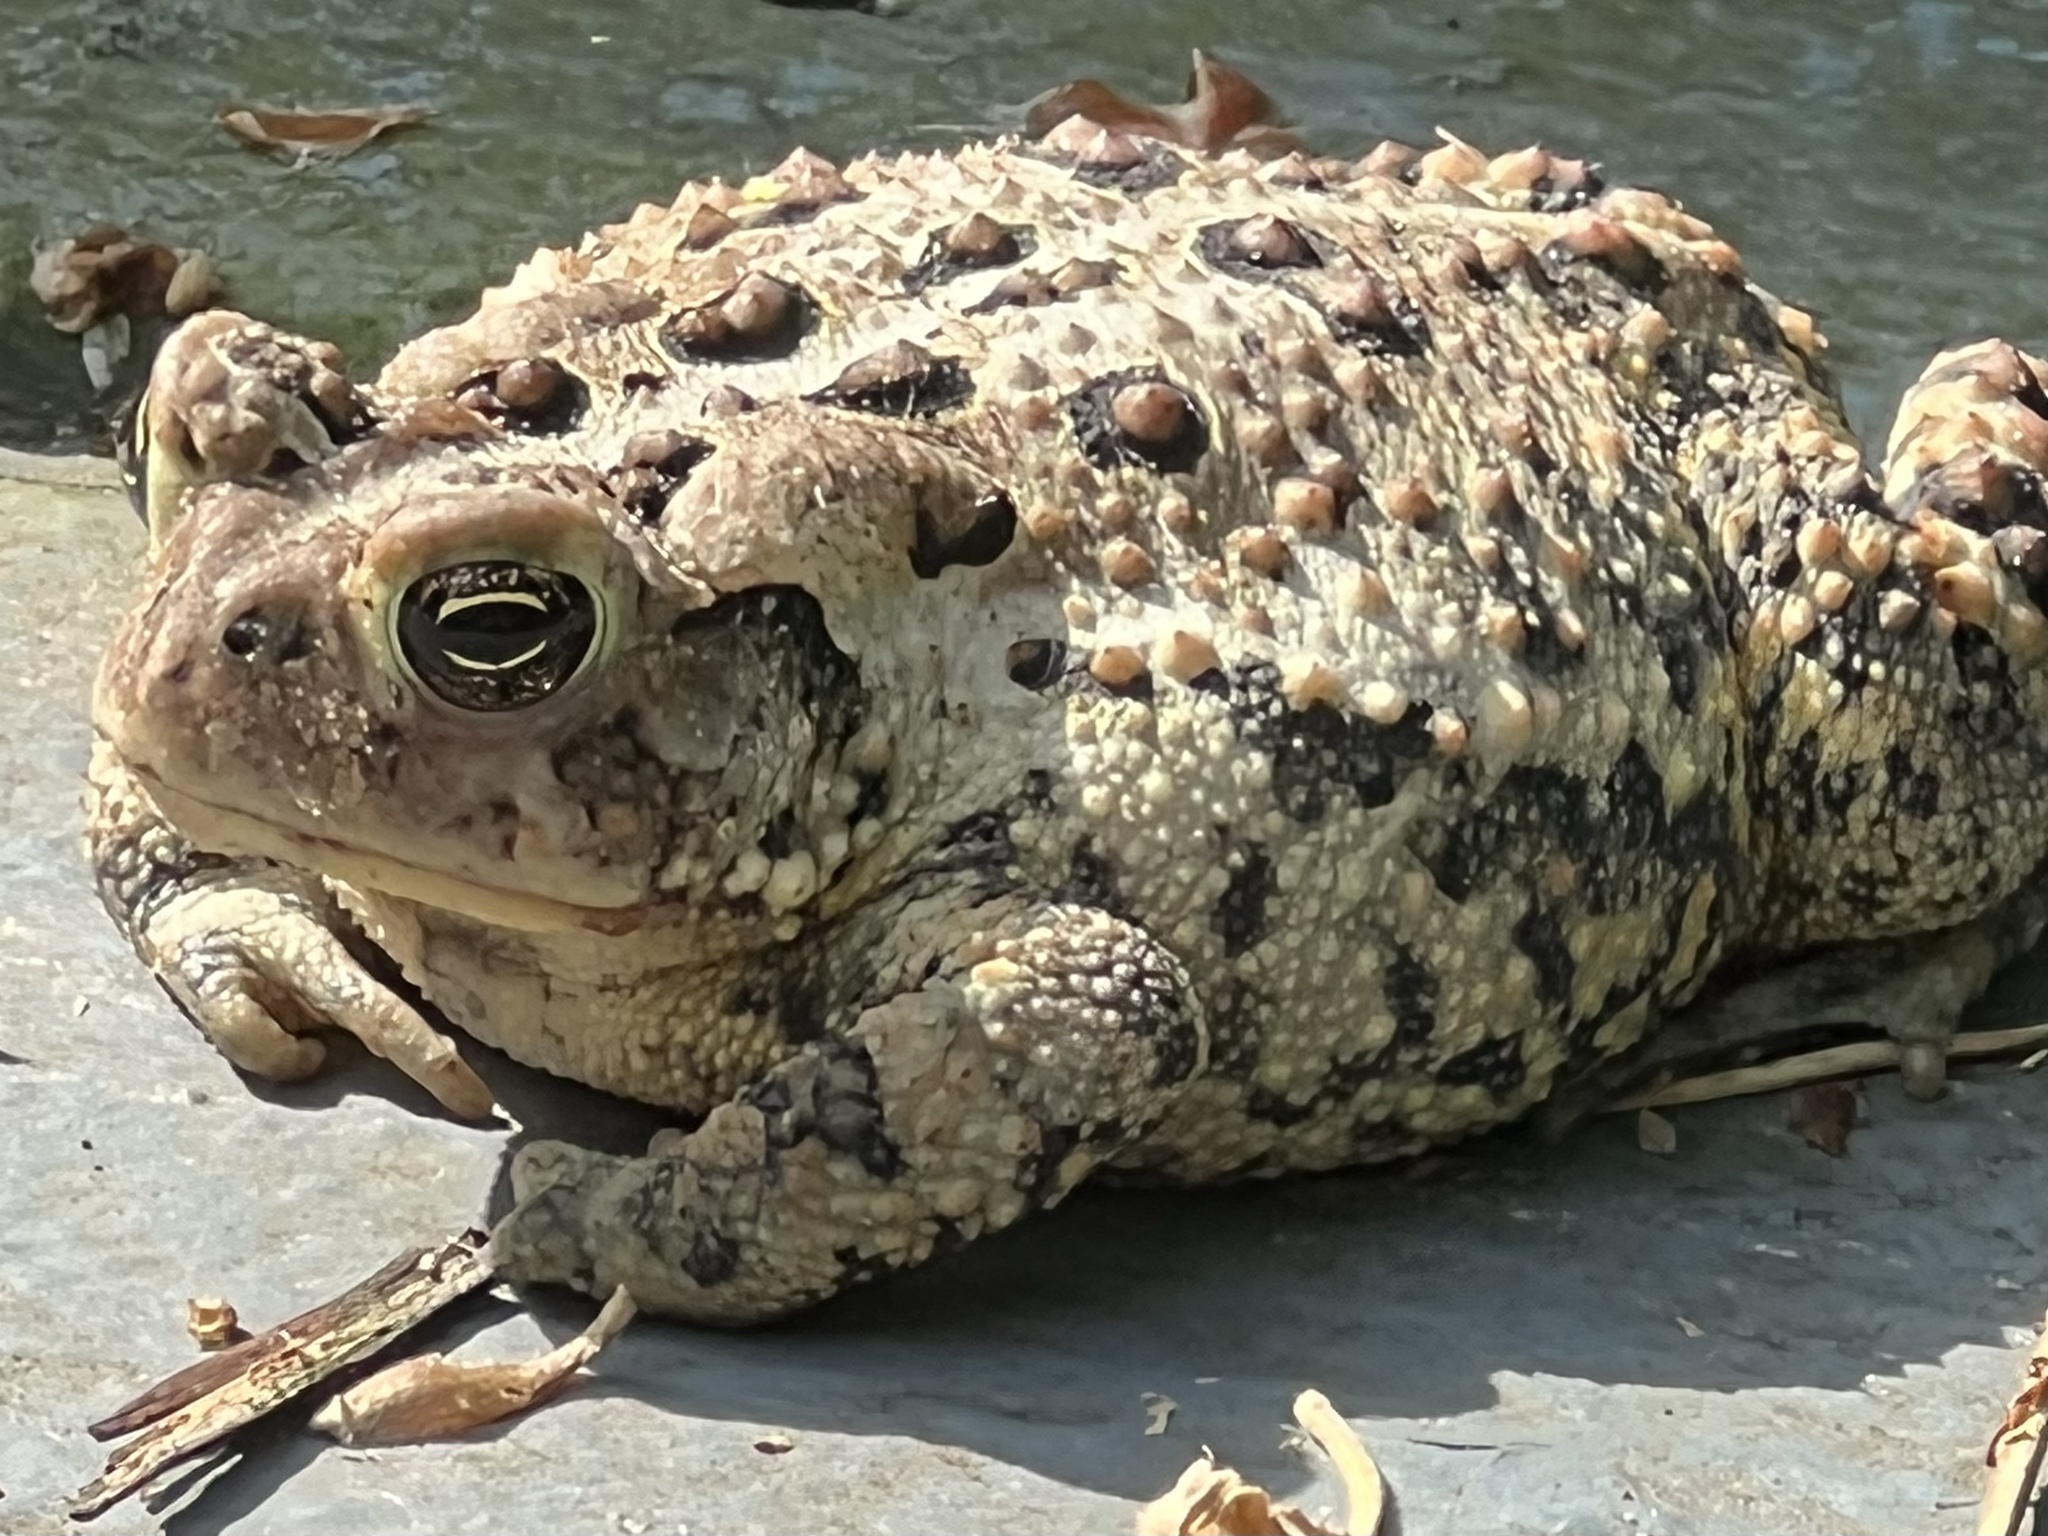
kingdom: Animalia
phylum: Chordata
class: Amphibia
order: Anura
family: Bufonidae
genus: Anaxyrus
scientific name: Anaxyrus americanus
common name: American toad
